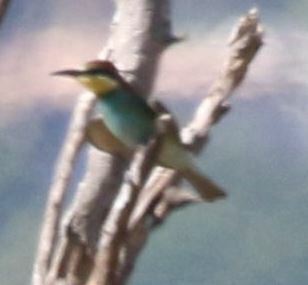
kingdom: Animalia
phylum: Chordata
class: Aves
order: Coraciiformes
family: Meropidae
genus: Merops
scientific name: Merops apiaster
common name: European bee-eater
